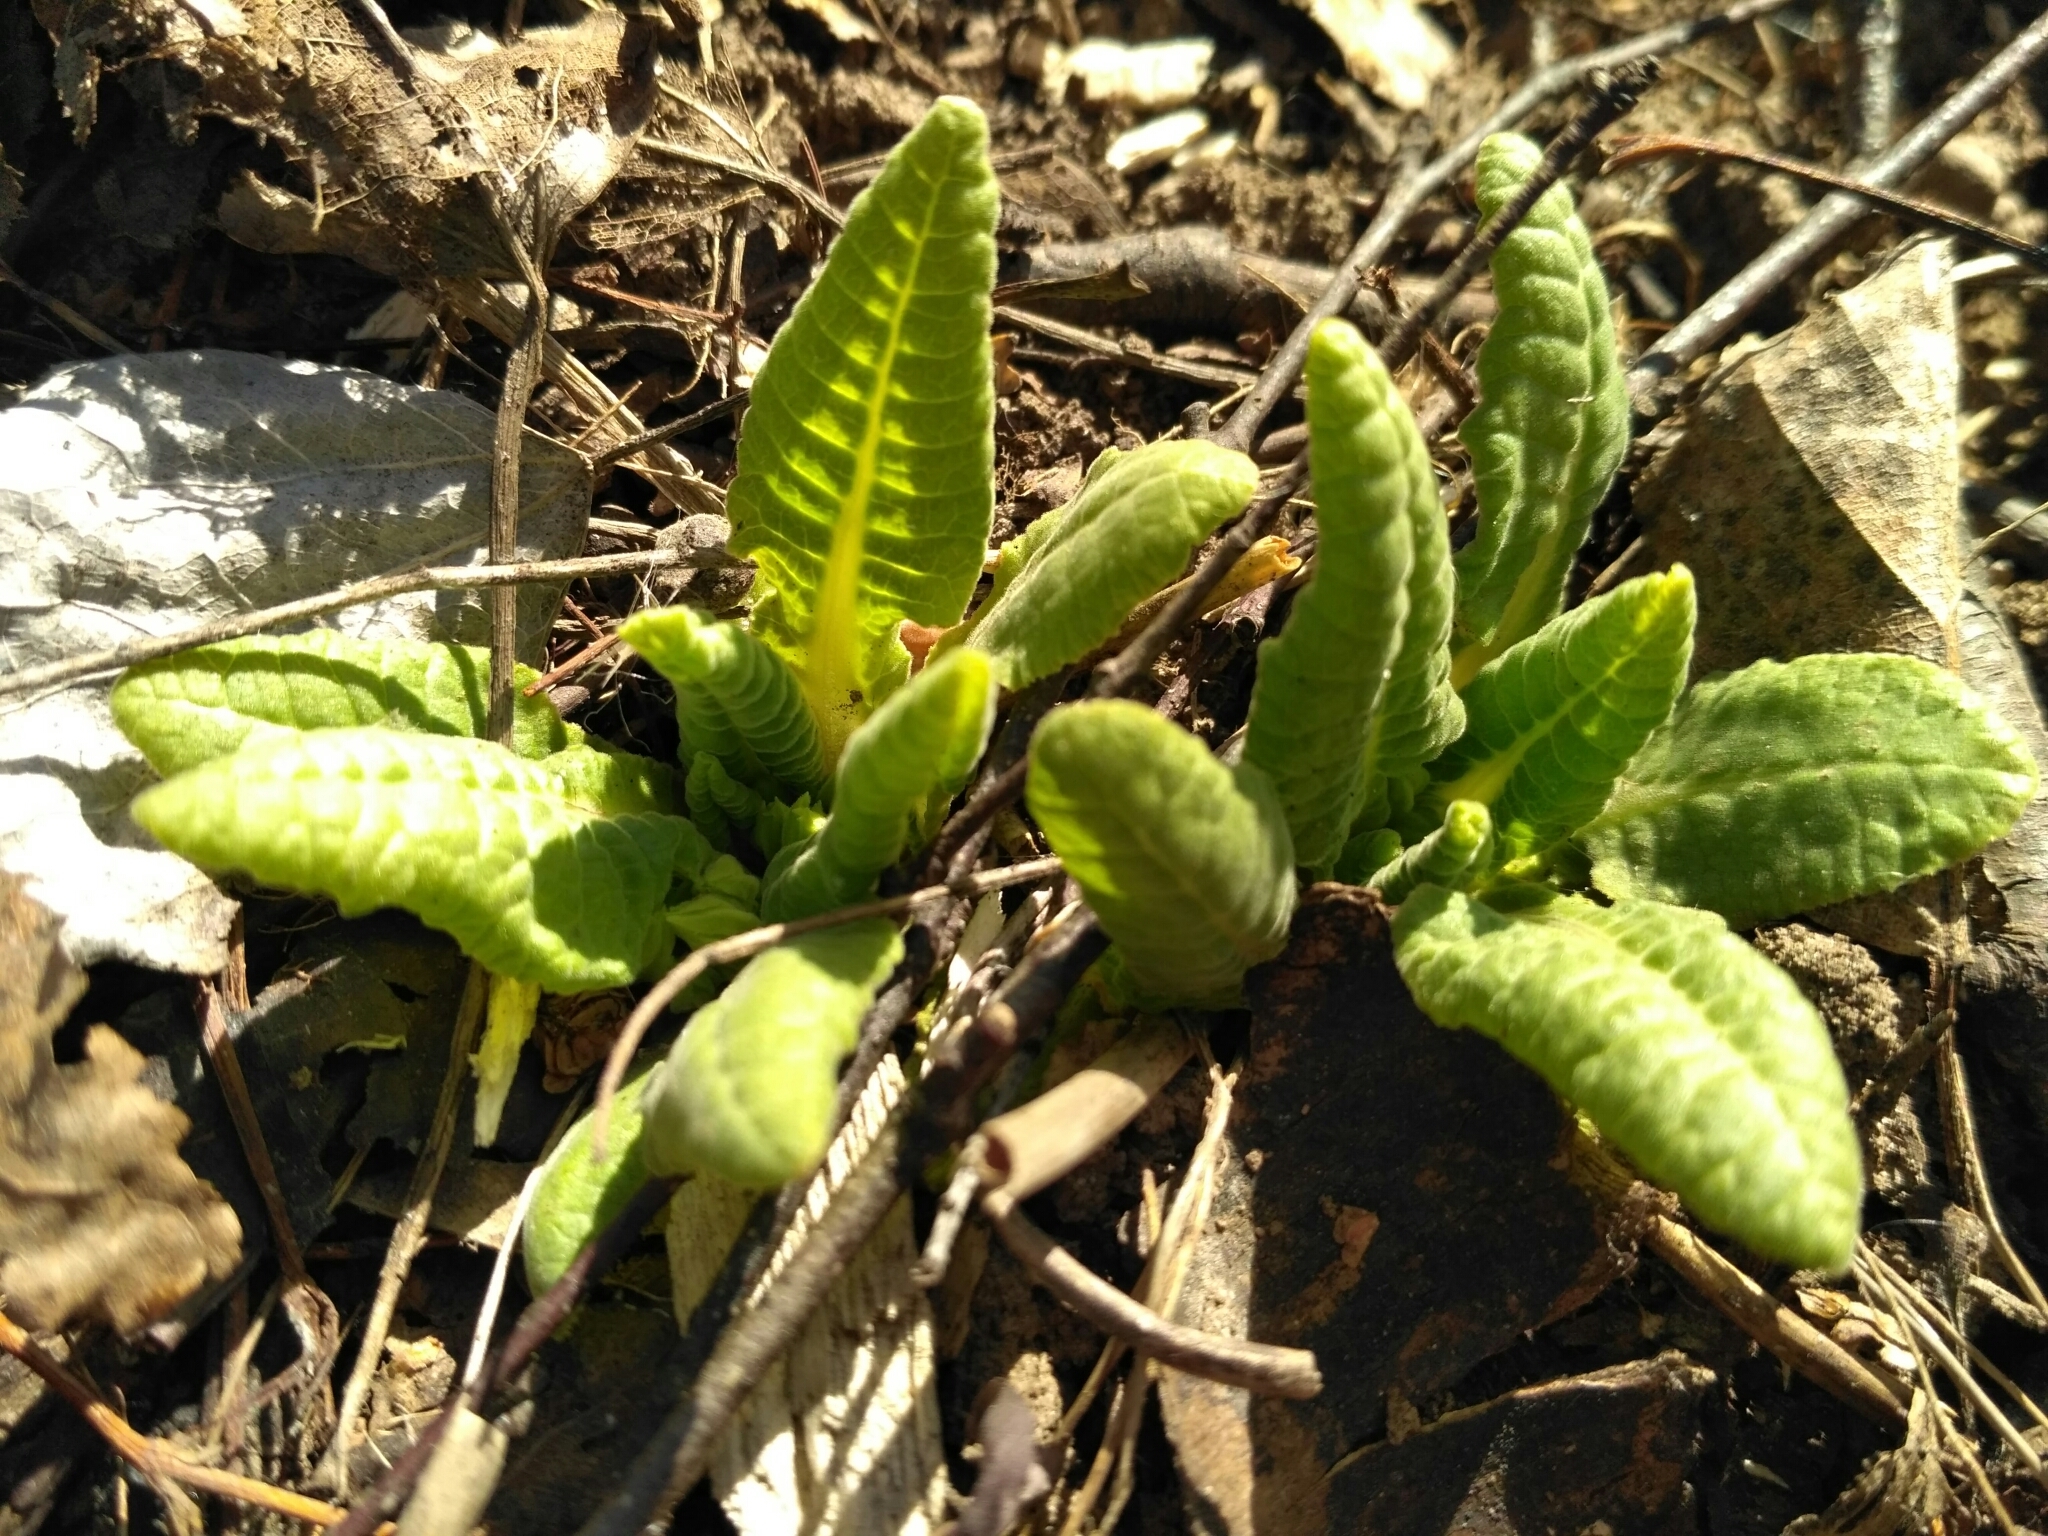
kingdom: Plantae
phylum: Tracheophyta
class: Magnoliopsida
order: Ericales
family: Primulaceae
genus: Primula
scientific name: Primula veris
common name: Cowslip
